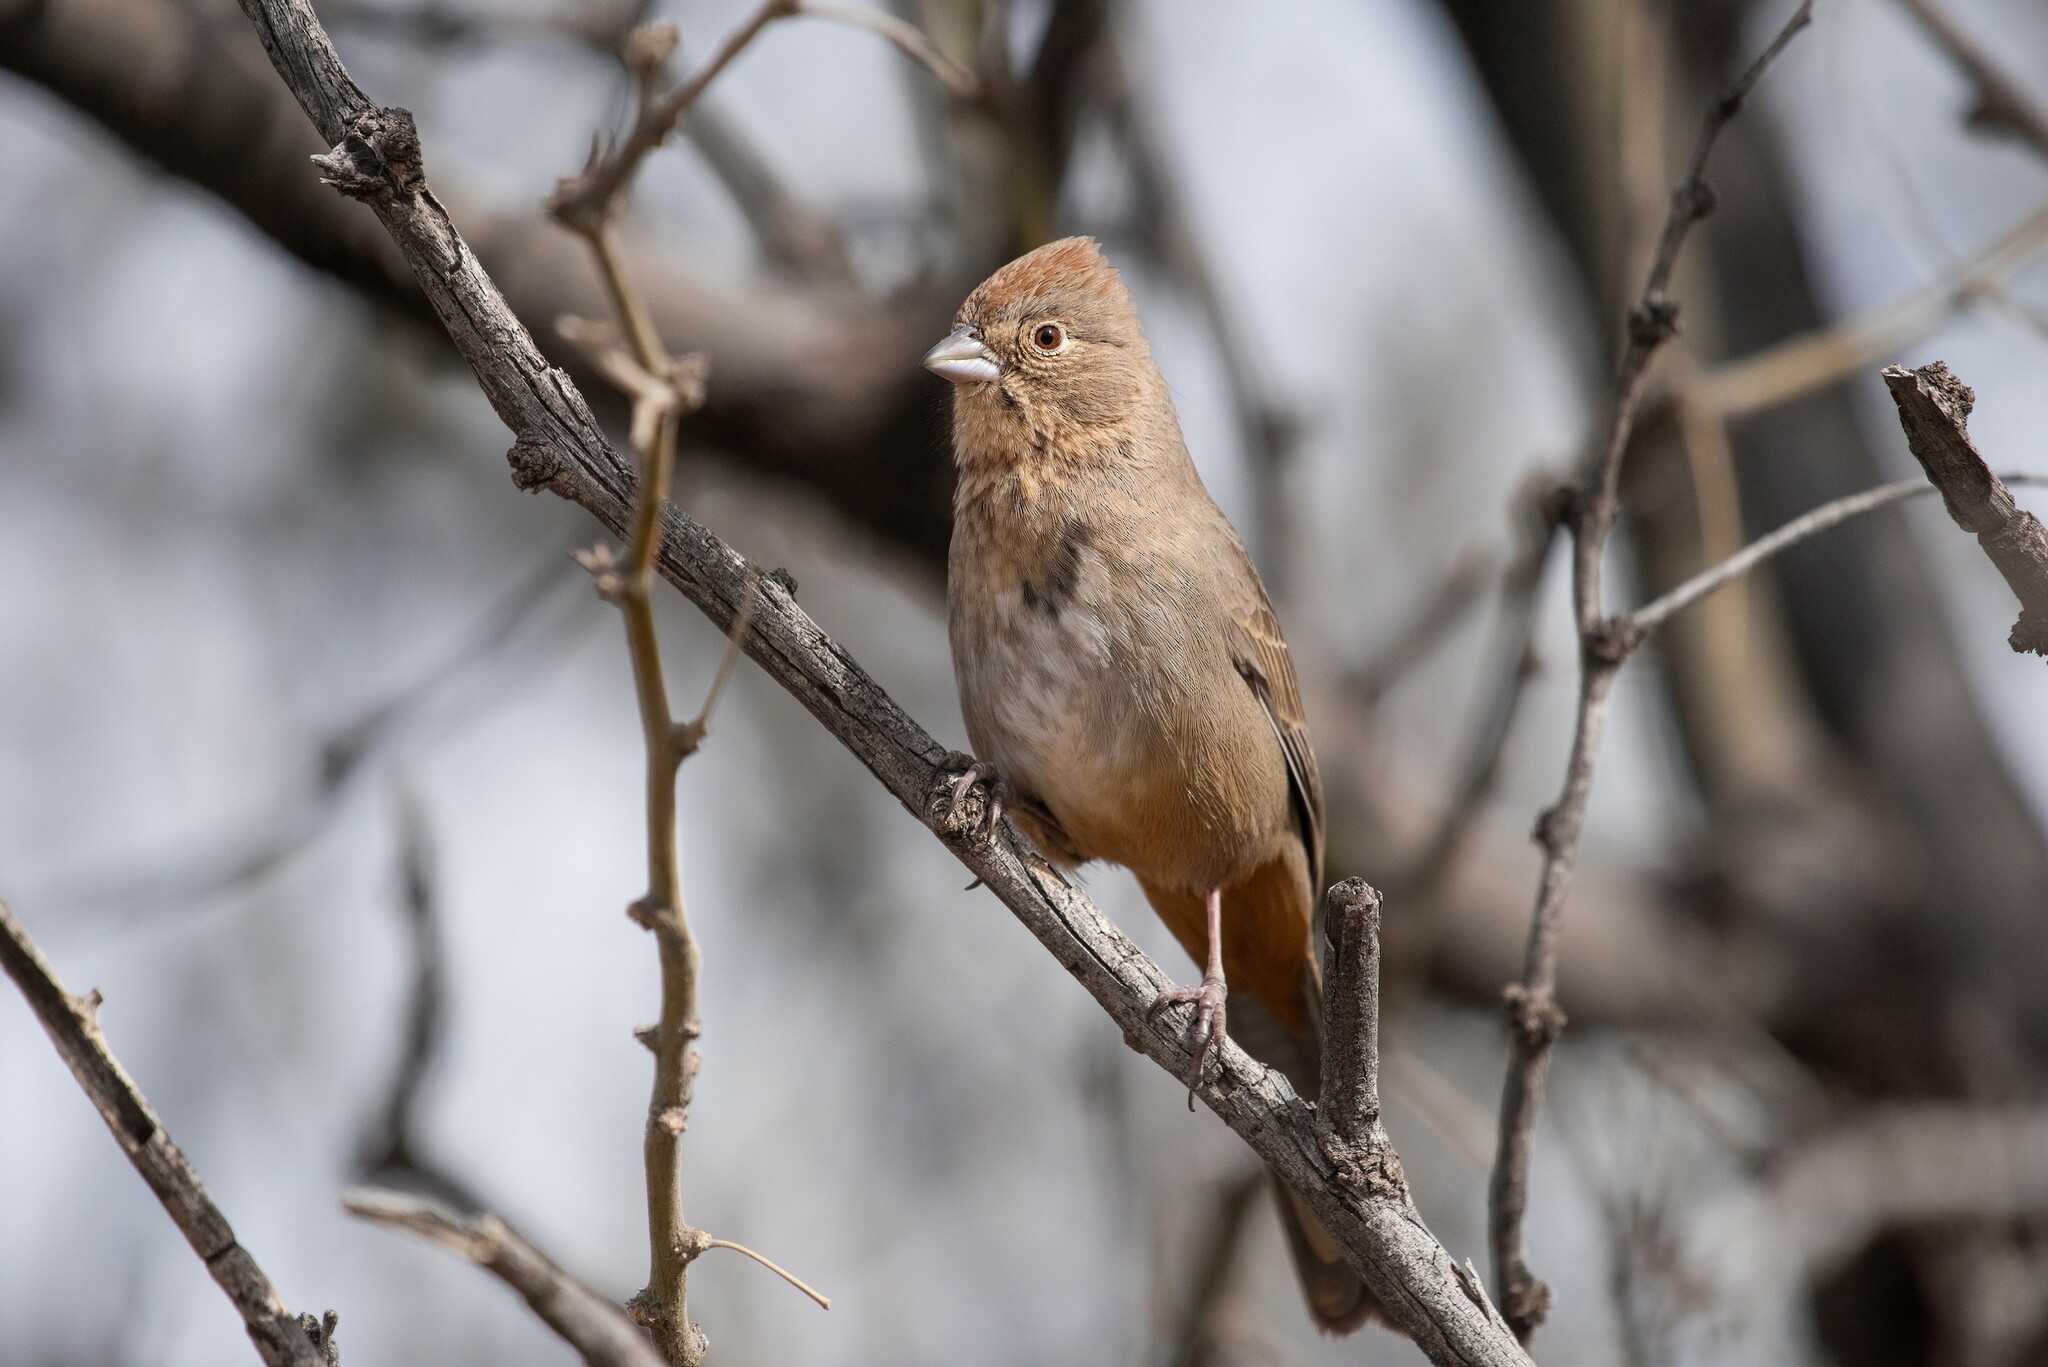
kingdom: Animalia
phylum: Chordata
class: Aves
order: Passeriformes
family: Passerellidae
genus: Melozone
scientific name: Melozone fusca
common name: Canyon towhee
